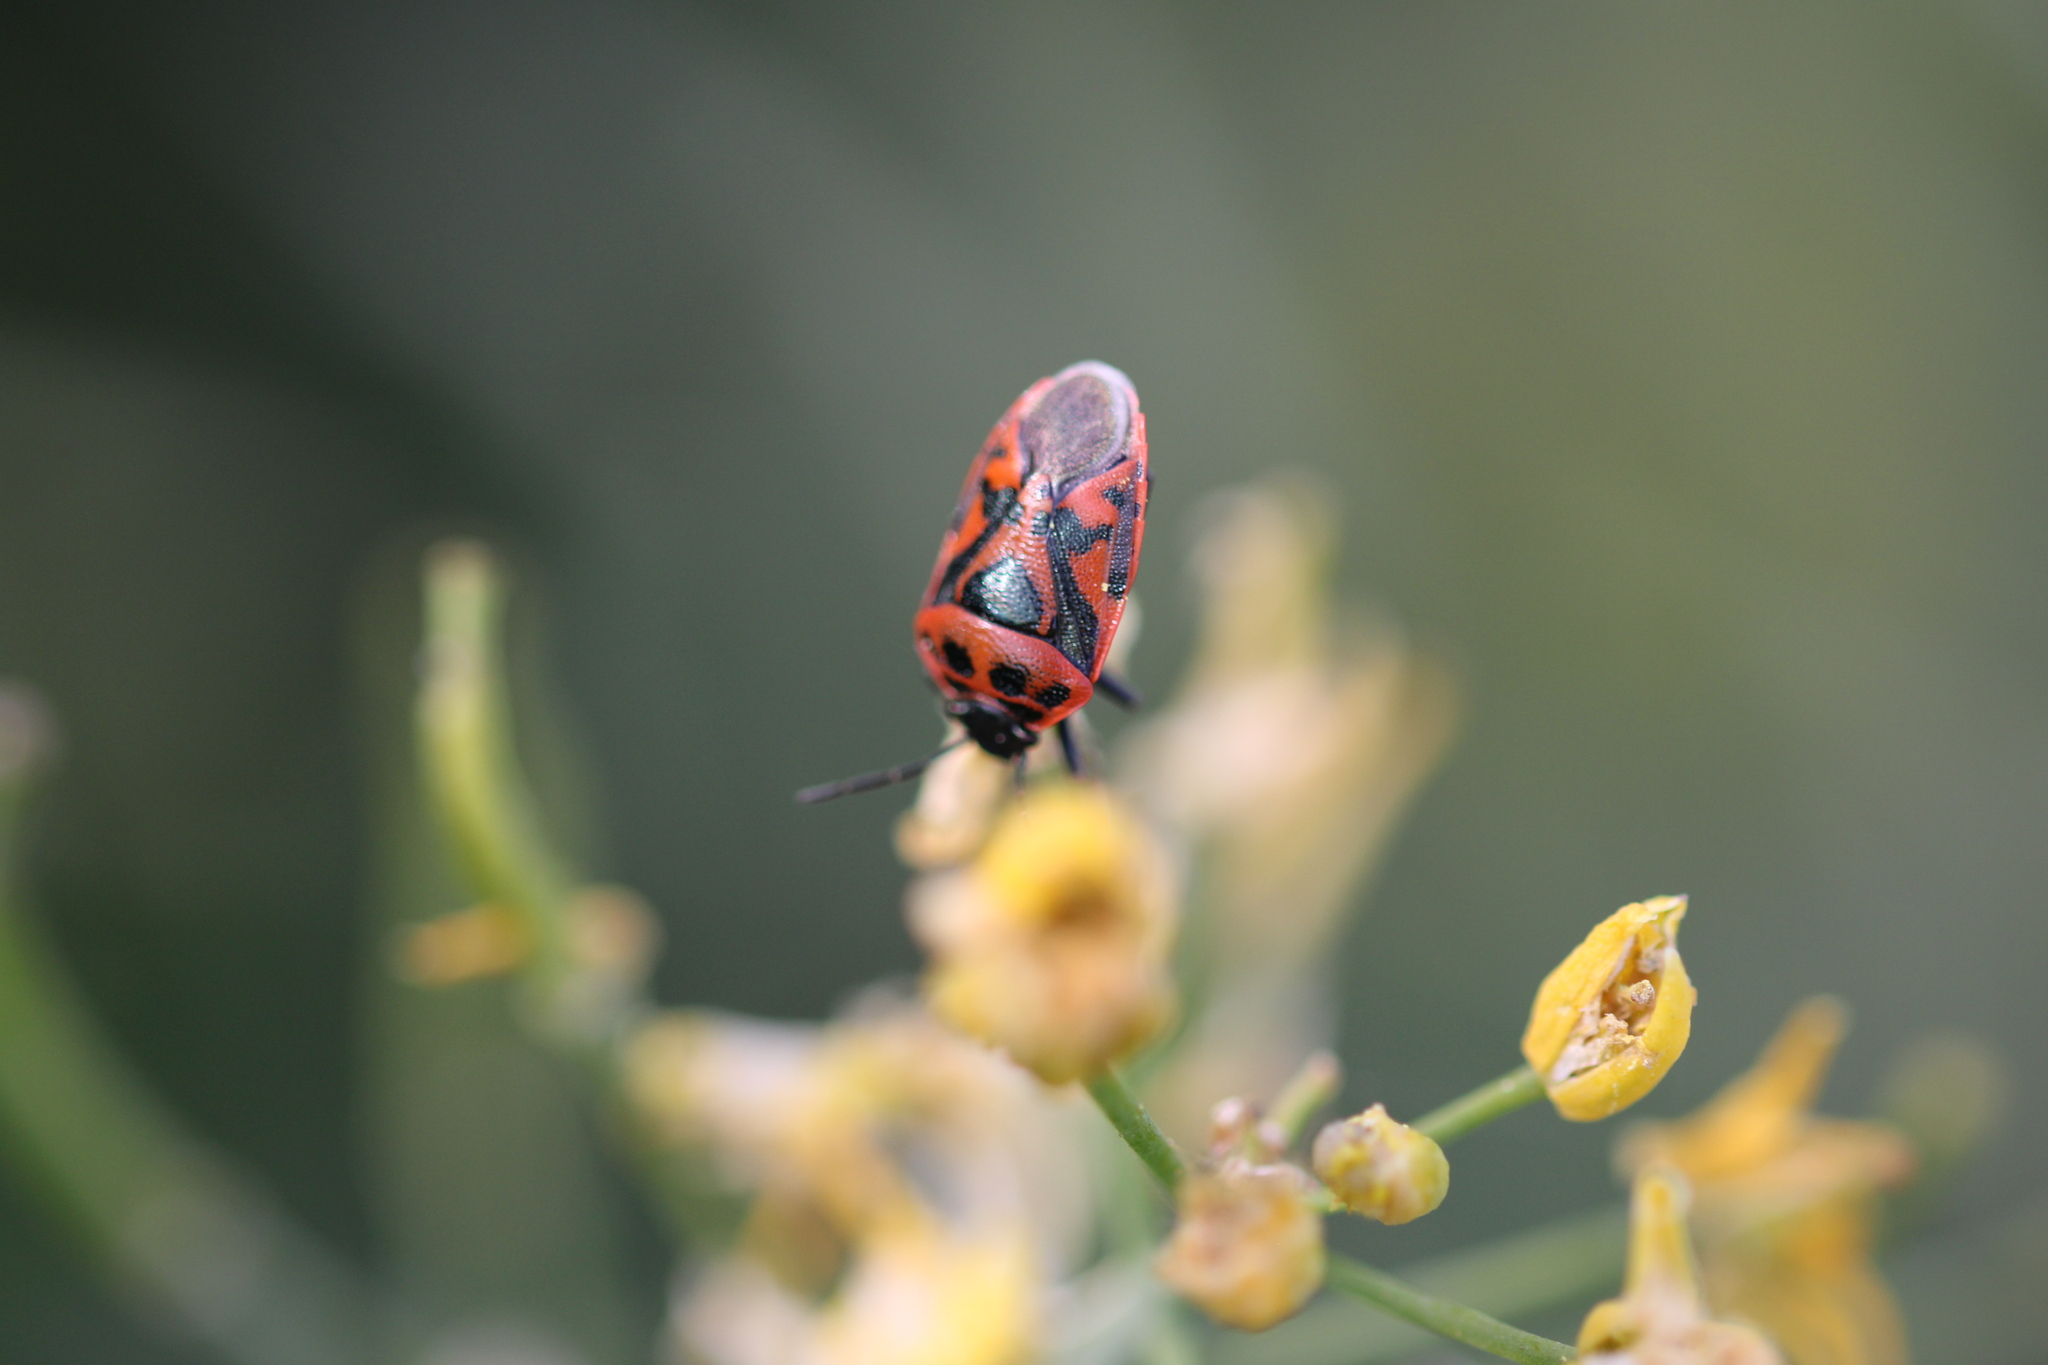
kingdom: Animalia
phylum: Arthropoda
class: Insecta
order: Hemiptera
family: Pentatomidae
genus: Eurydema
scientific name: Eurydema ornata
